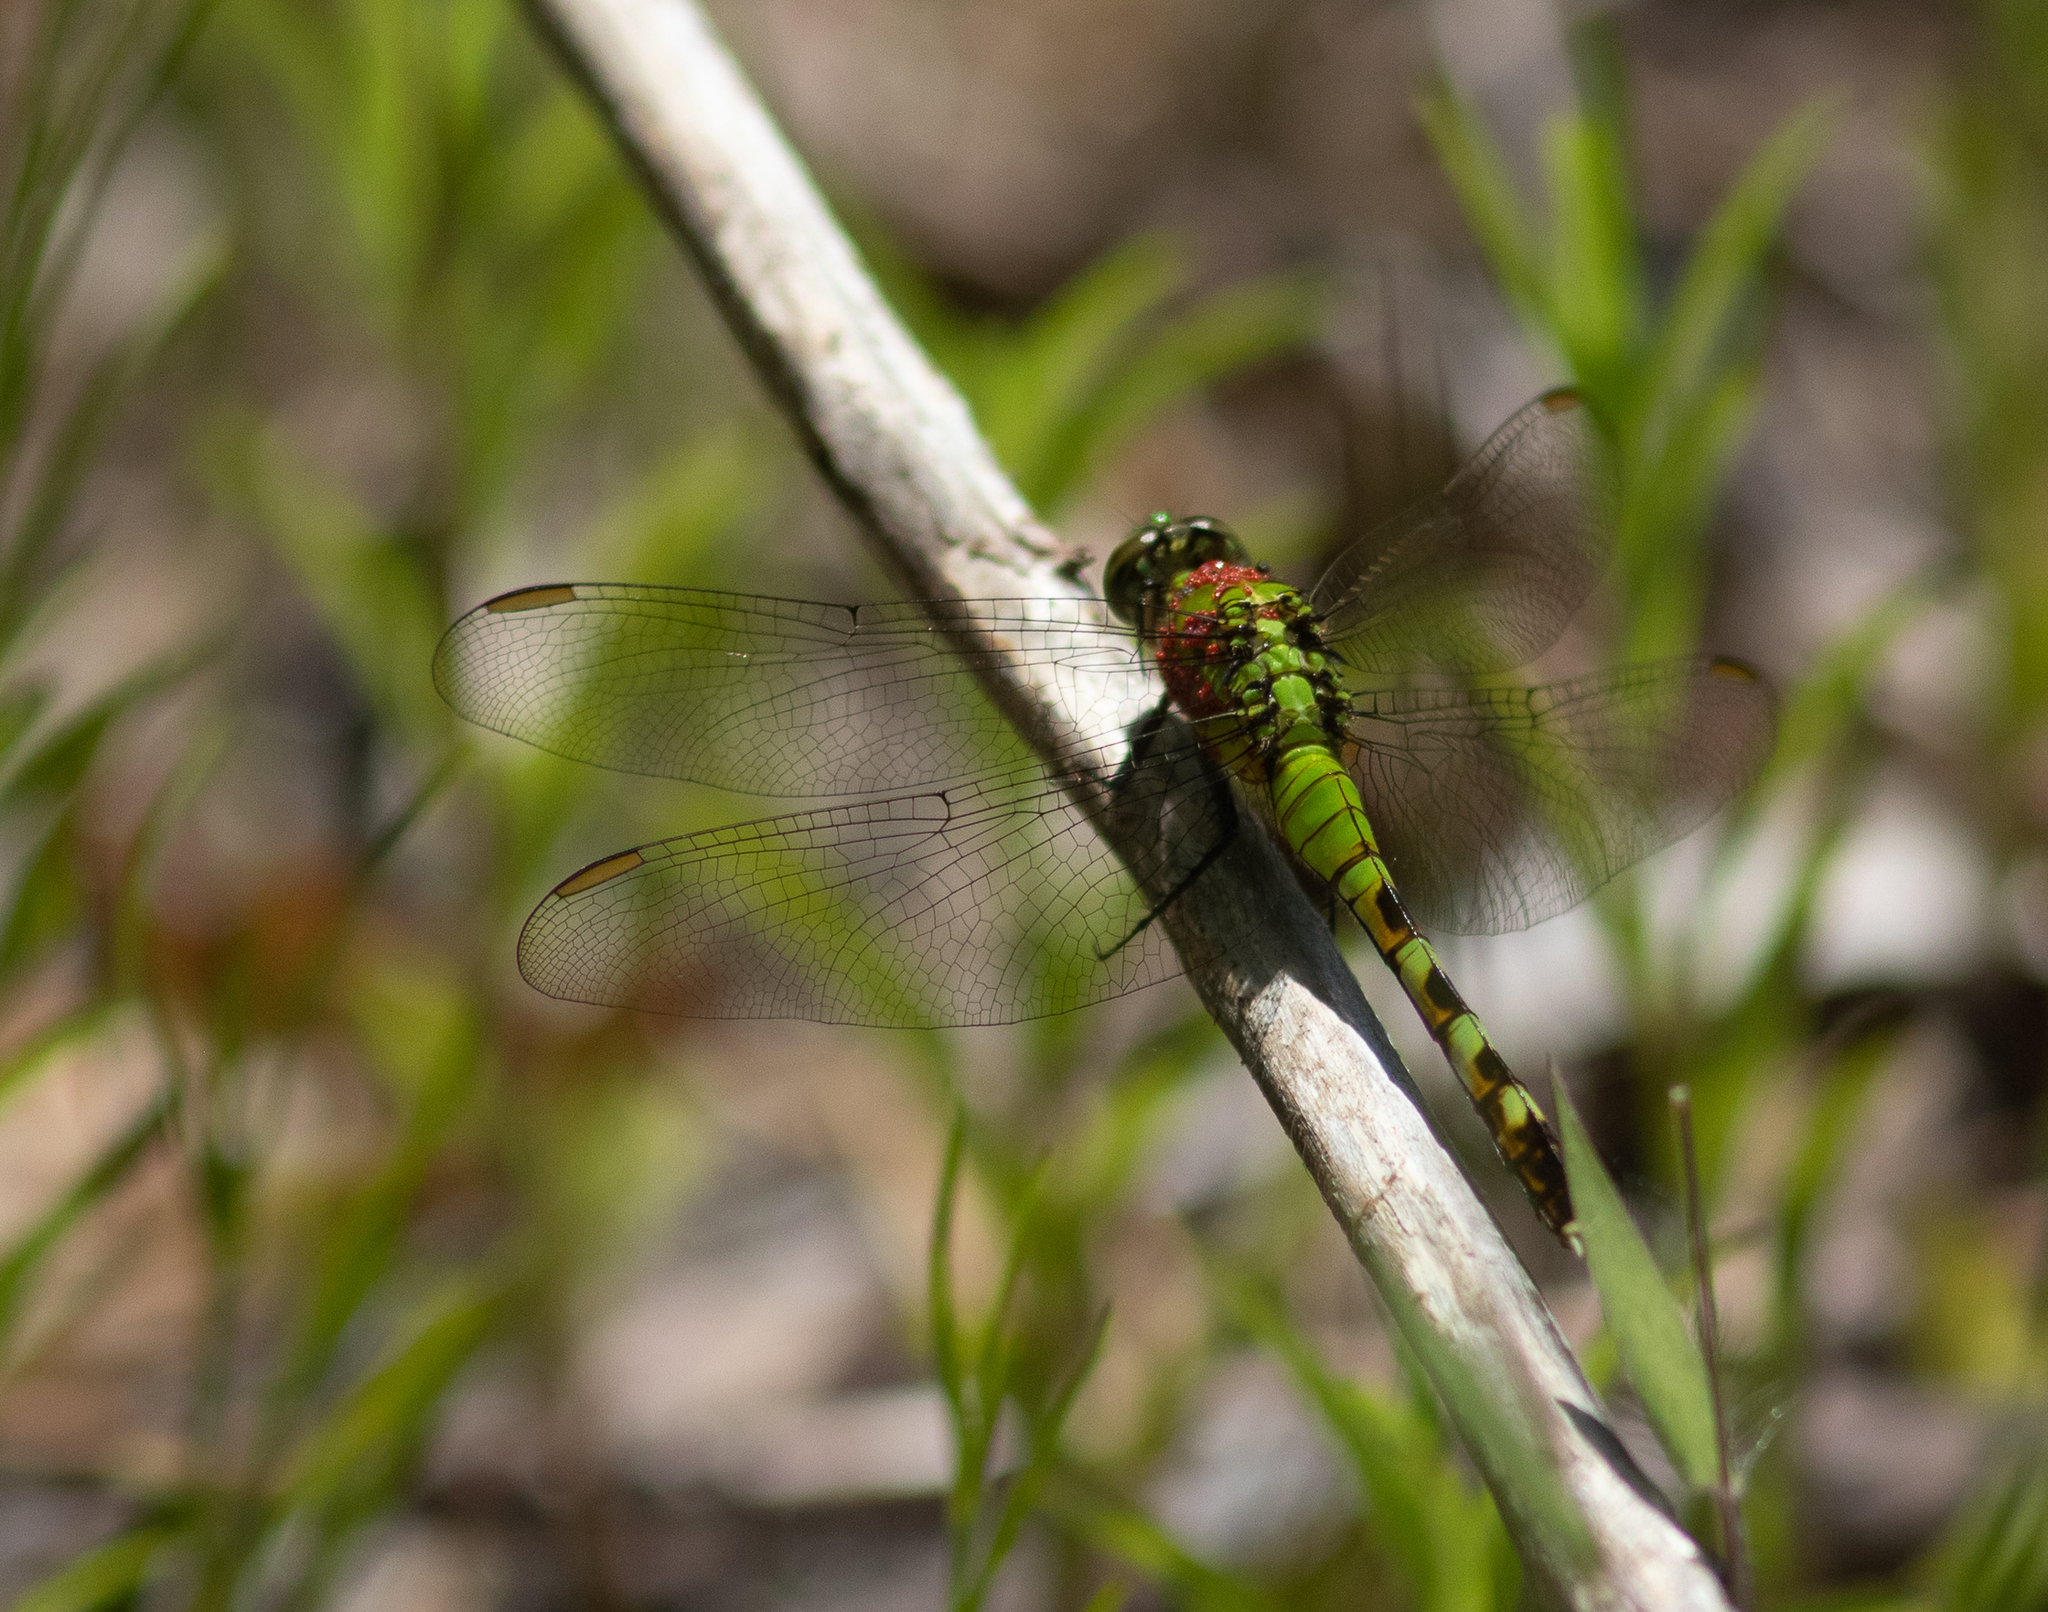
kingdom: Animalia
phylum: Arthropoda
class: Insecta
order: Odonata
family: Libellulidae
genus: Erythemis
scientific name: Erythemis simplicicollis
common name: Eastern pondhawk
